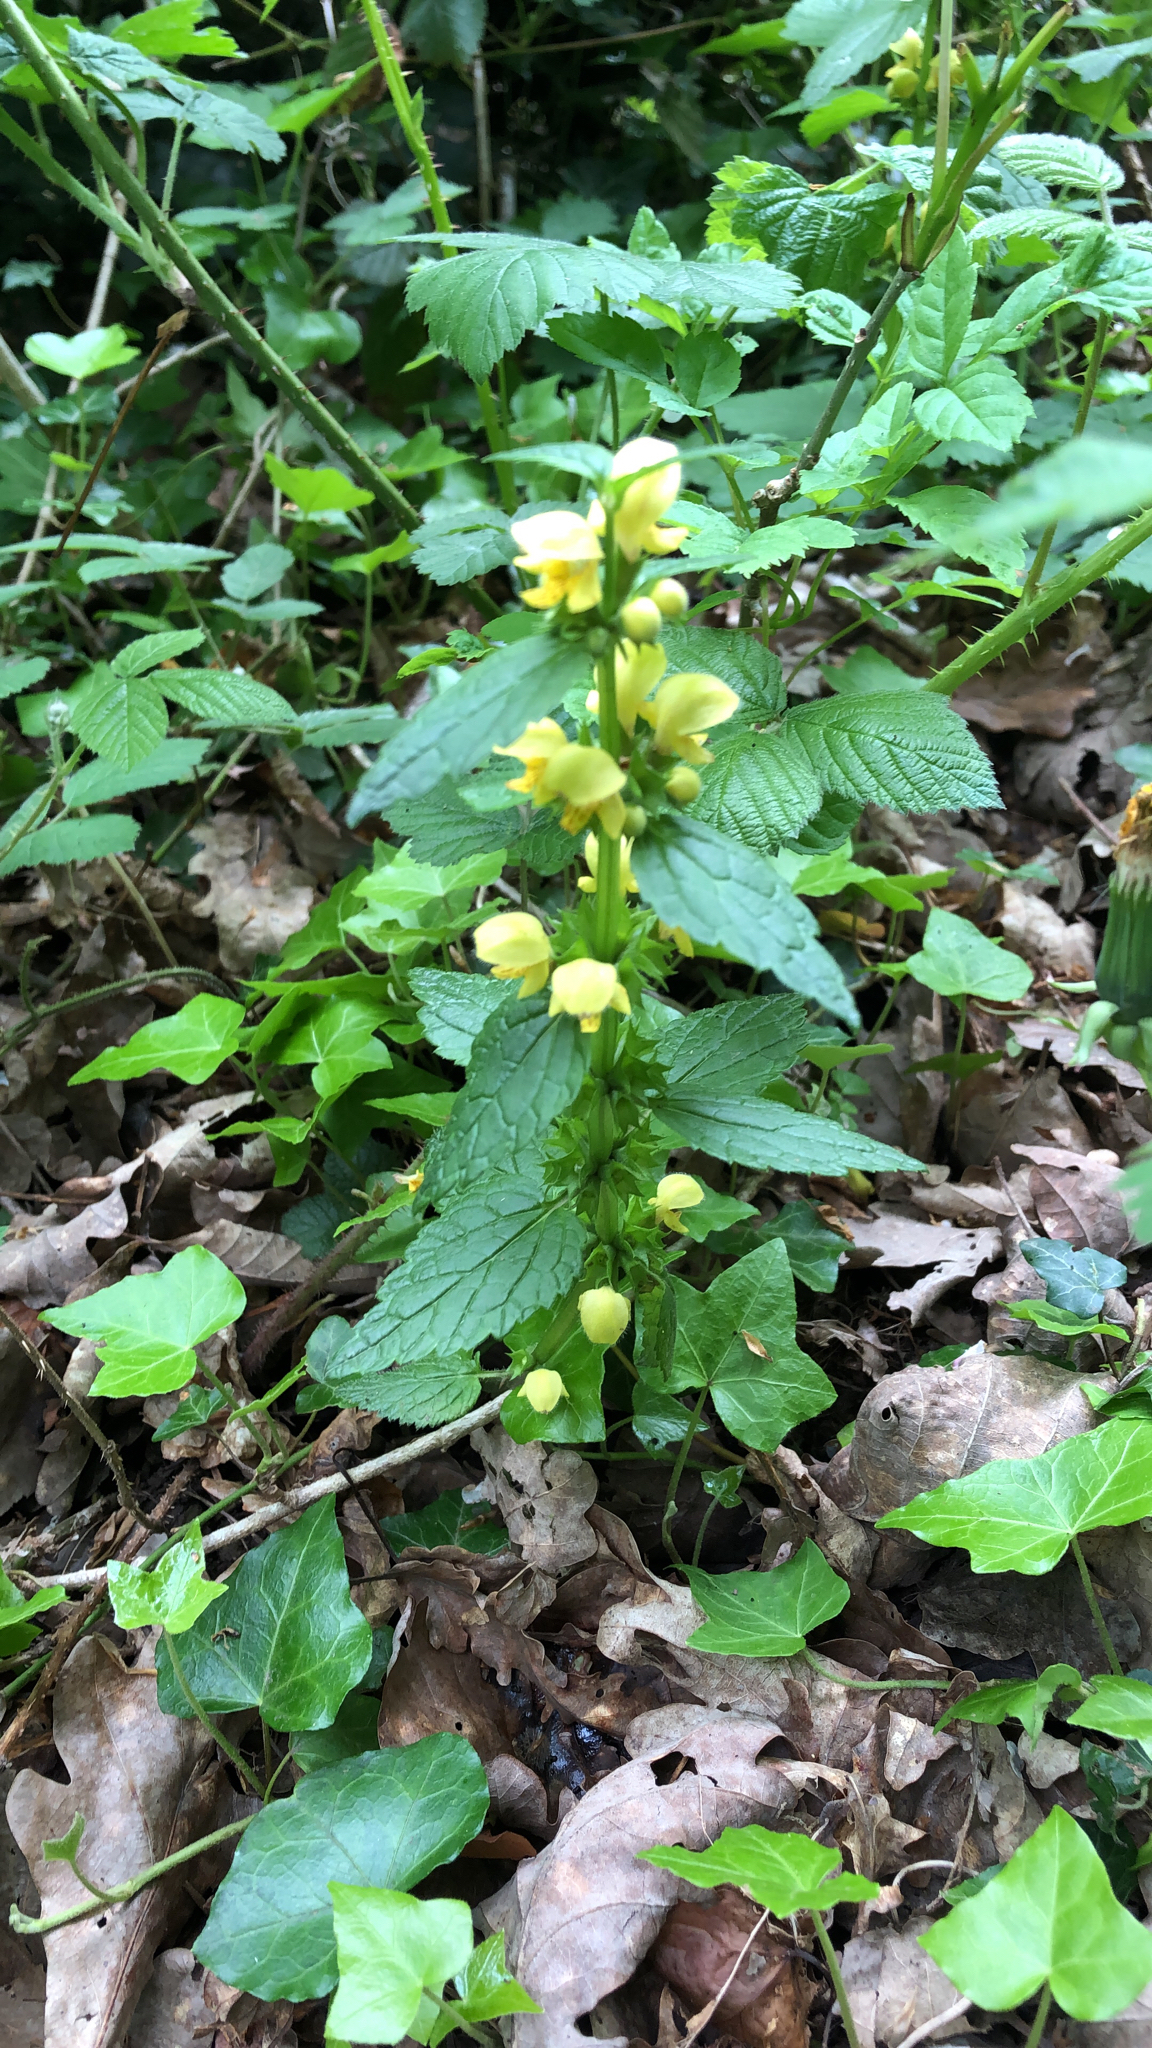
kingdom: Plantae
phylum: Tracheophyta
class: Magnoliopsida
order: Lamiales
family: Lamiaceae
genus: Lamium
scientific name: Lamium galeobdolon
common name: Yellow archangel
